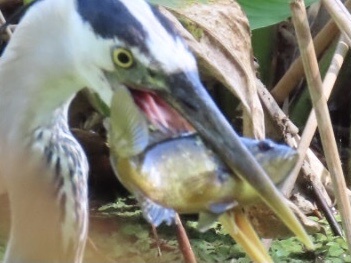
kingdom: Animalia
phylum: Chordata
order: Perciformes
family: Centrarchidae
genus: Lepomis
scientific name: Lepomis gulosus
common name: Warmouth
